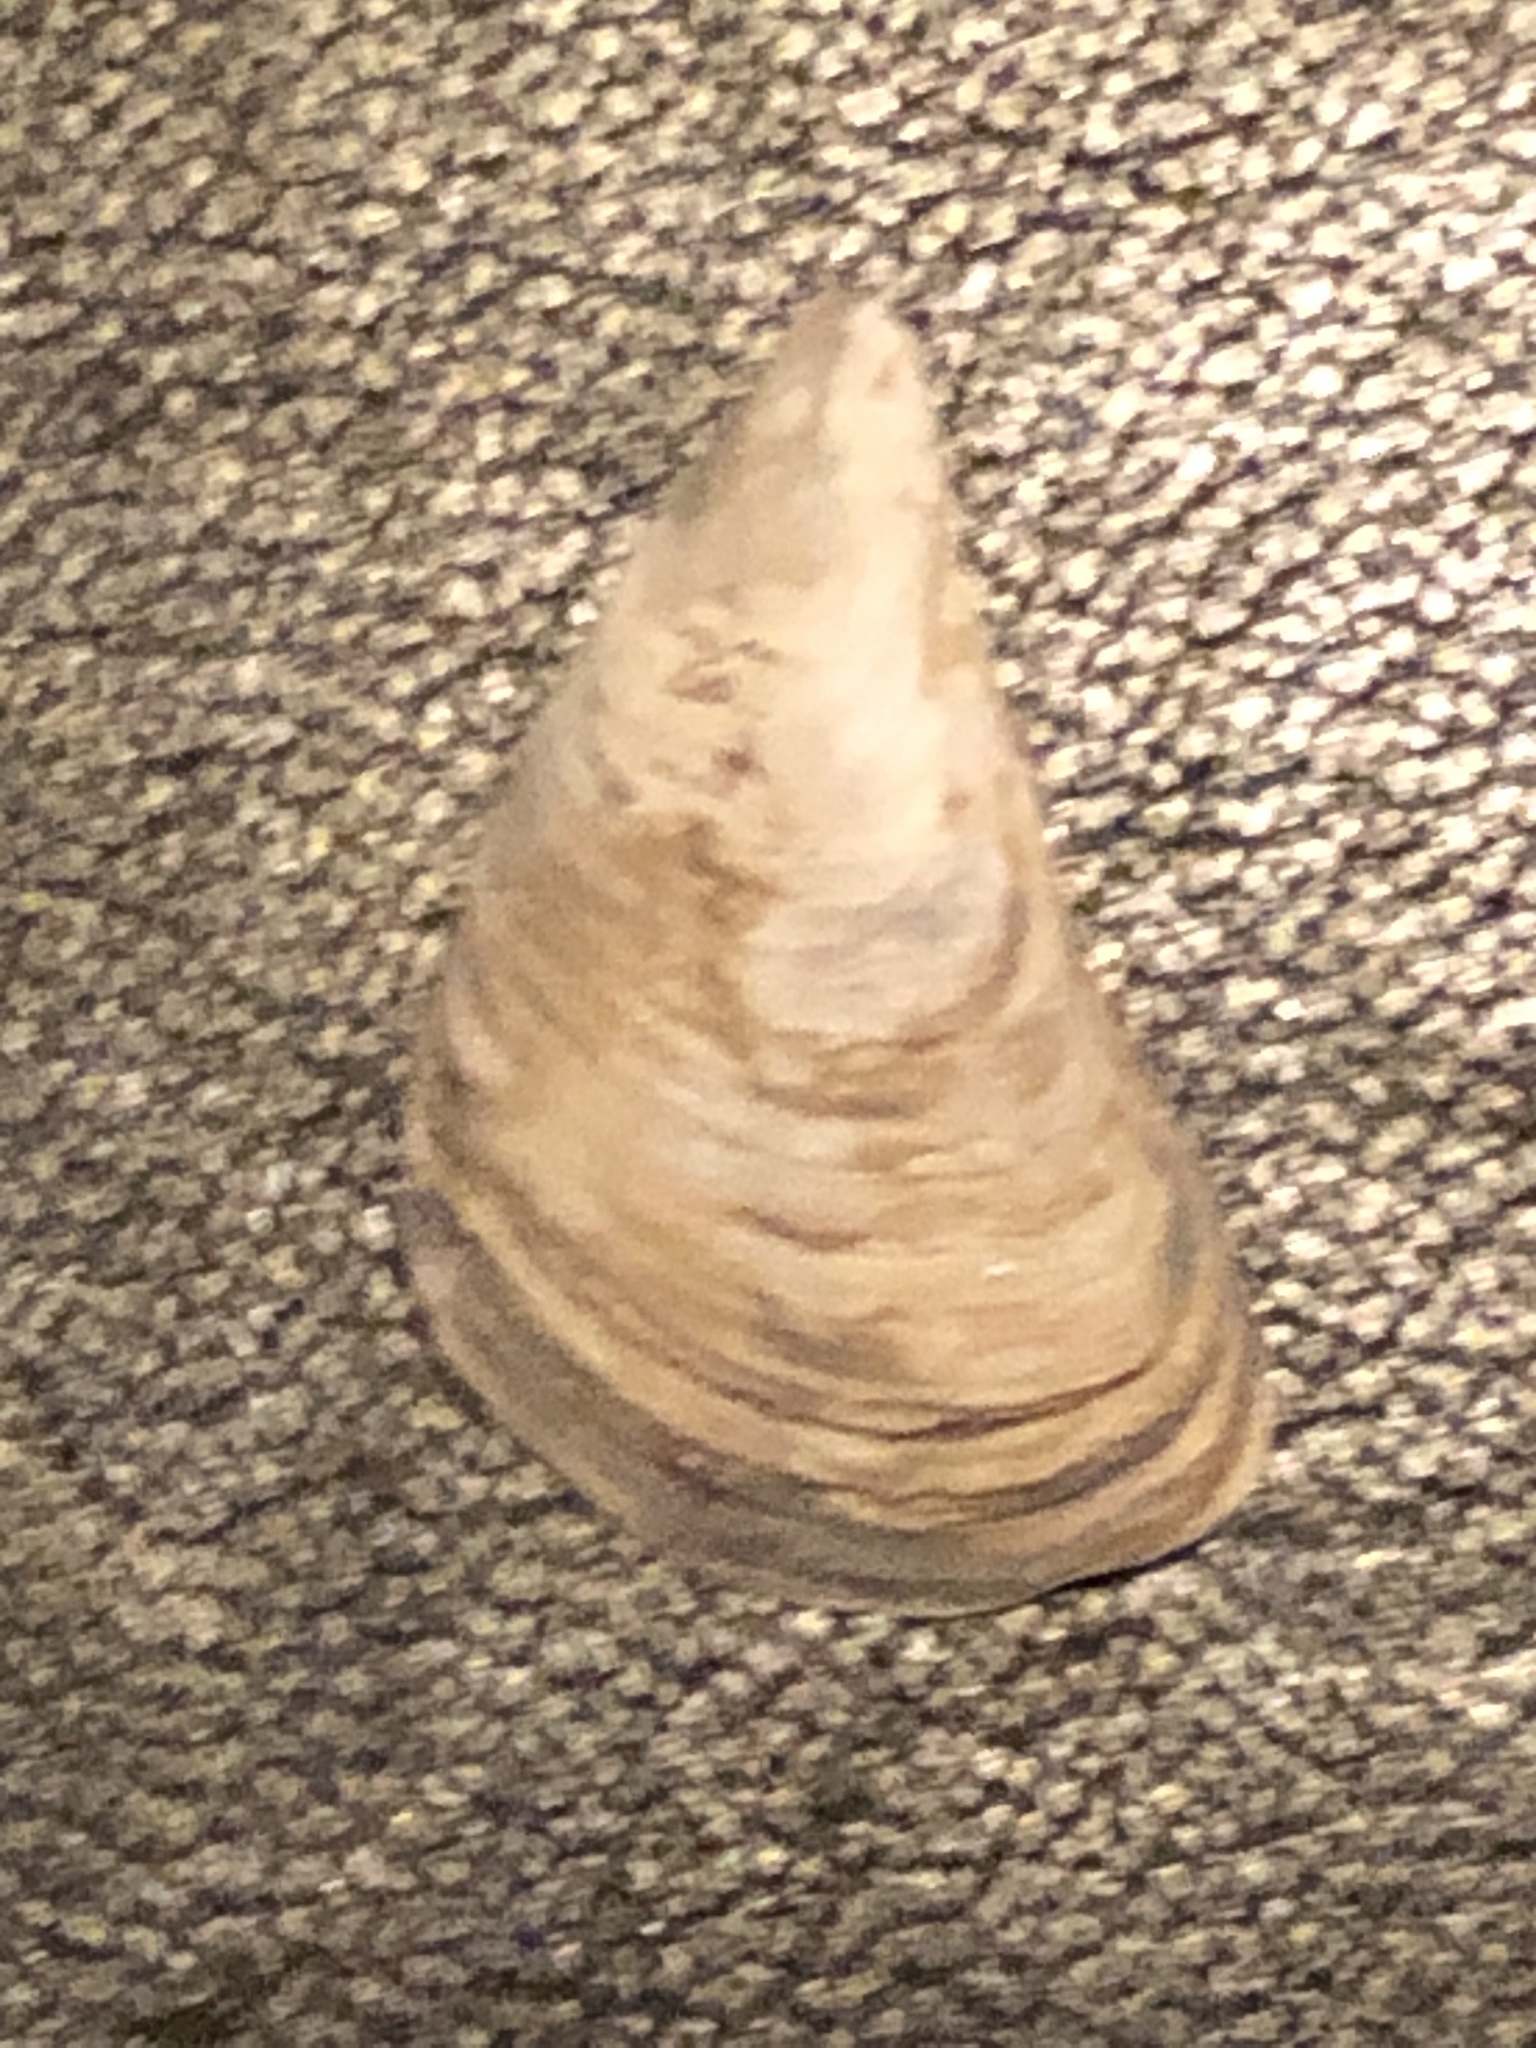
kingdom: Animalia
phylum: Mollusca
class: Bivalvia
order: Myida
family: Dreissenidae
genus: Dreissena
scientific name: Dreissena bugensis
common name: Quagga mussel
